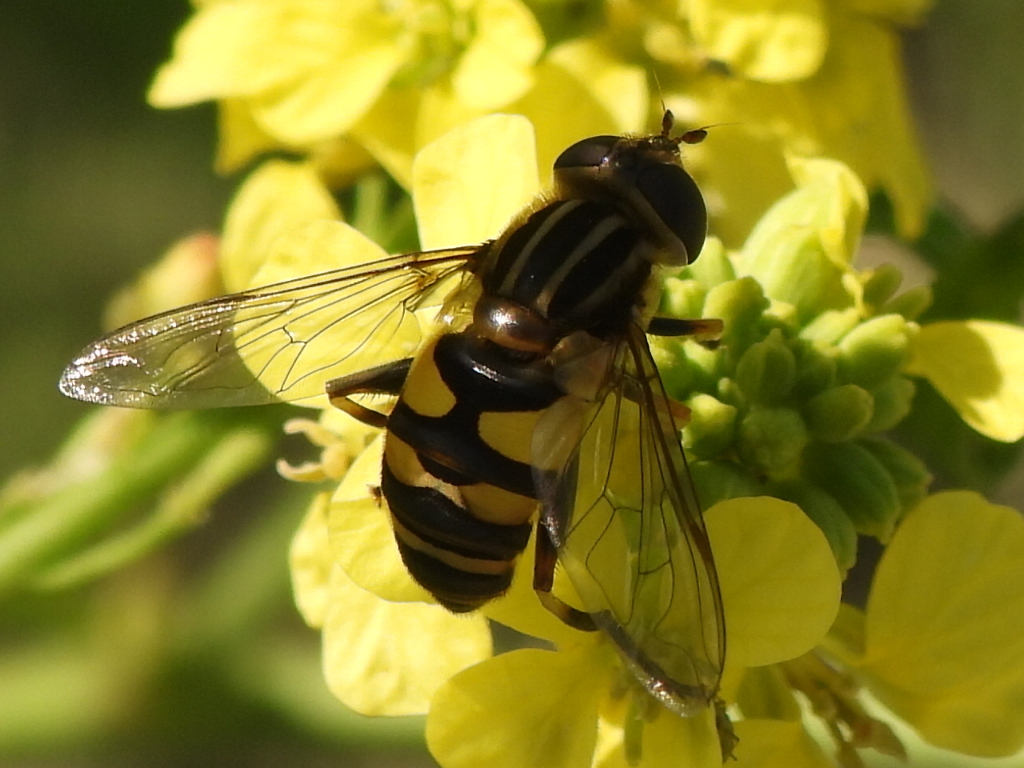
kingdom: Animalia
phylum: Arthropoda
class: Insecta
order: Diptera
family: Syrphidae
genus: Helophilus
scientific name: Helophilus fasciatus
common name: Narrow-headed marsh fly
